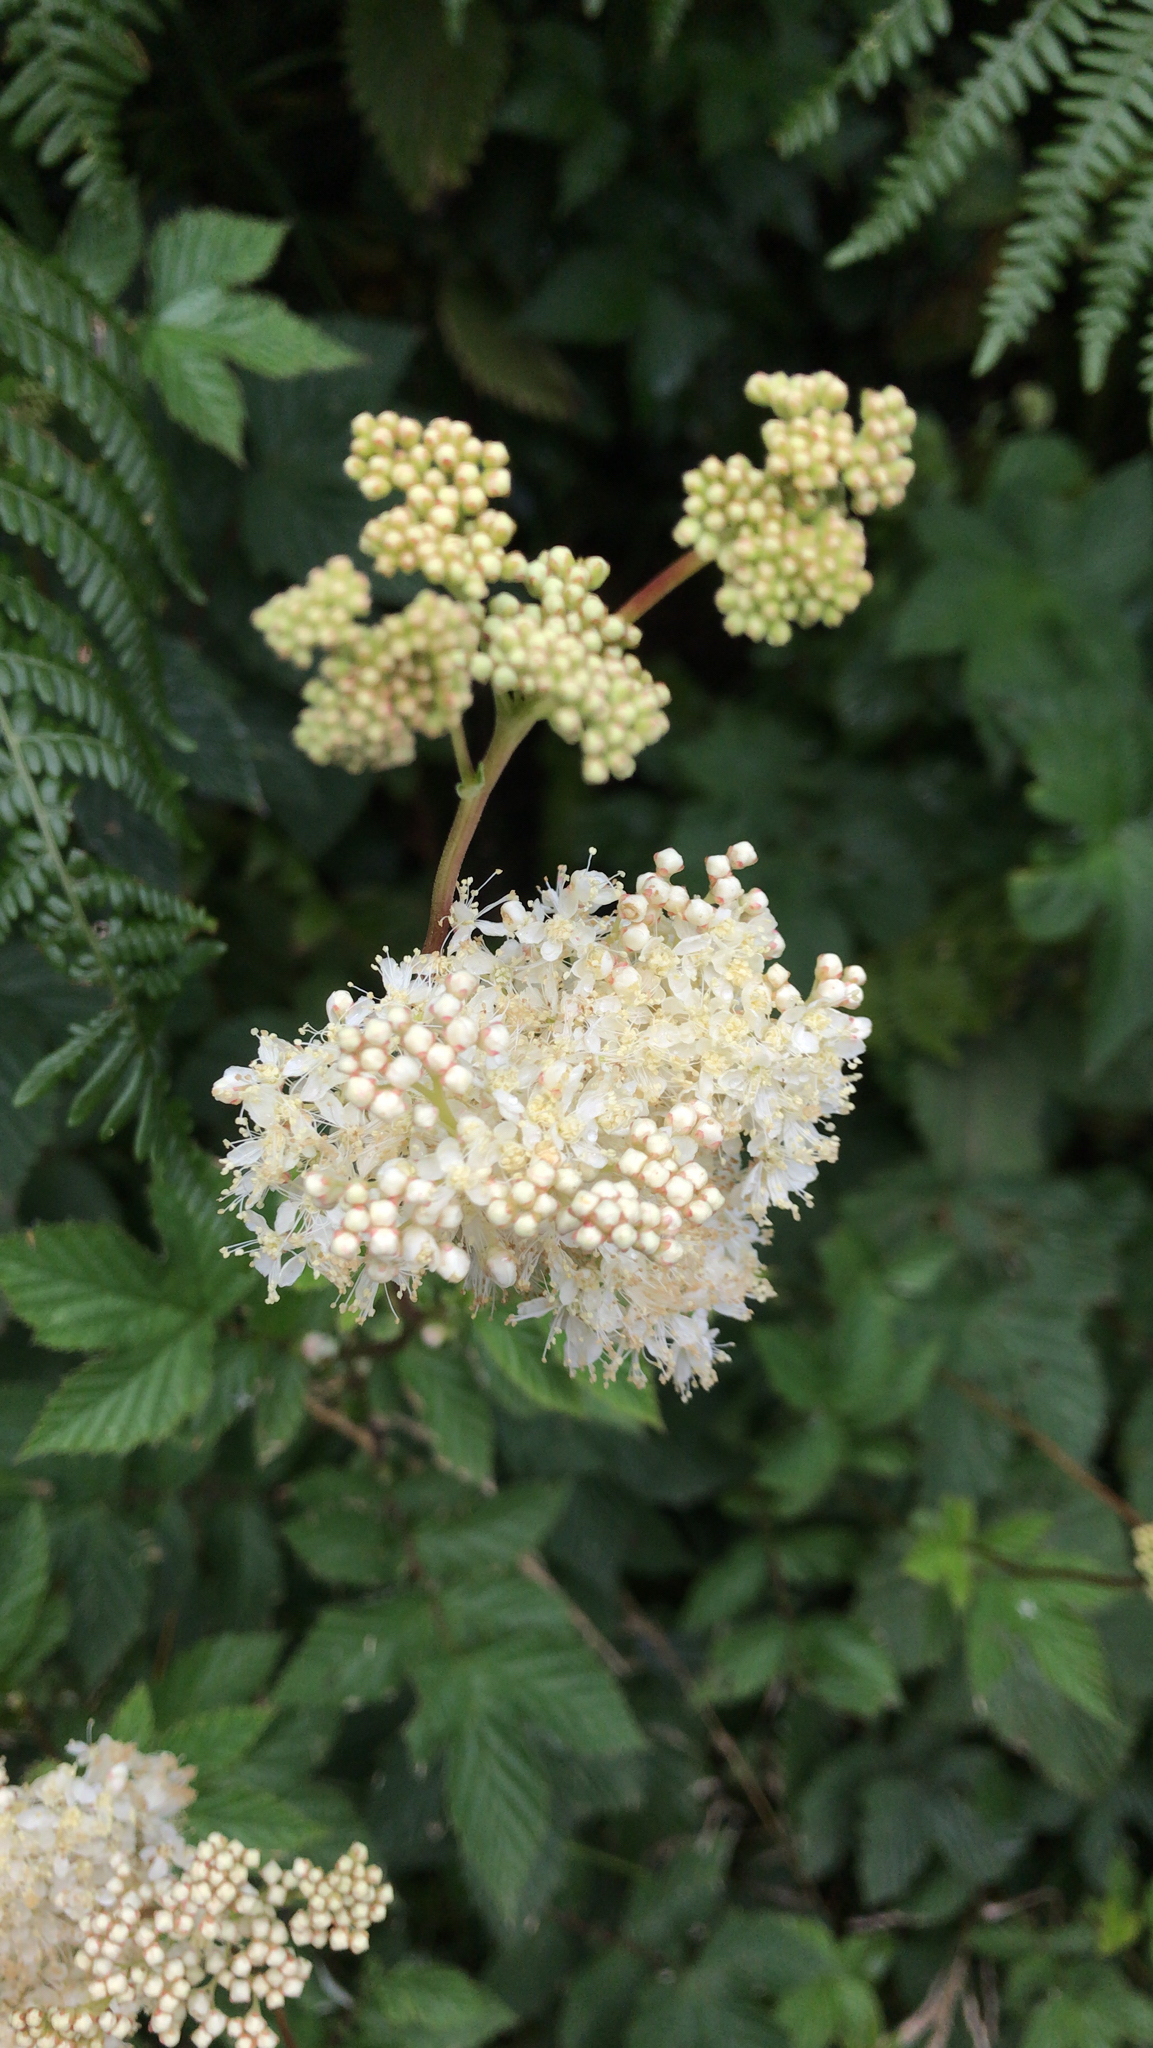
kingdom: Plantae
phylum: Tracheophyta
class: Magnoliopsida
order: Rosales
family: Rosaceae
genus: Filipendula
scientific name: Filipendula ulmaria
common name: Meadowsweet
